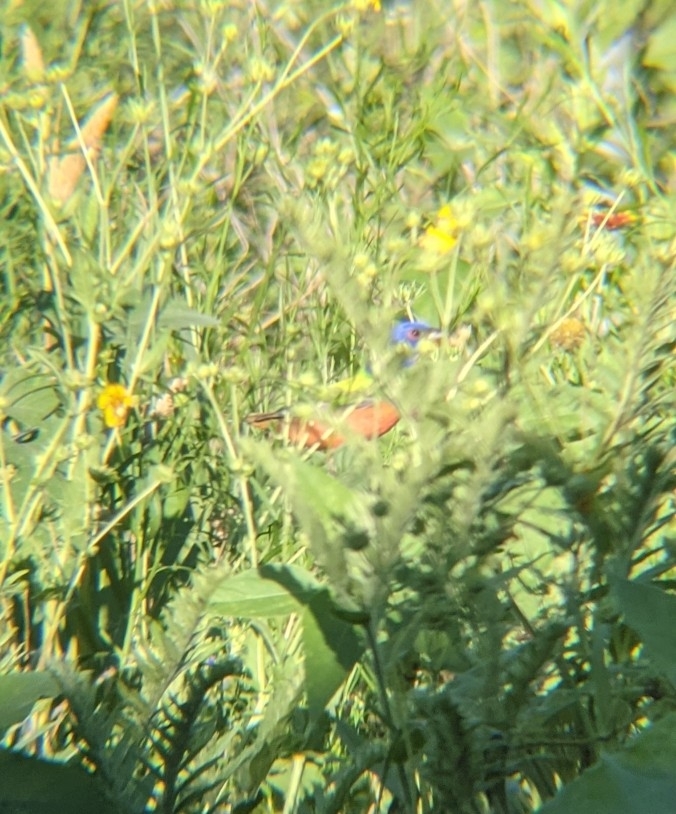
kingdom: Animalia
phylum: Chordata
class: Aves
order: Passeriformes
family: Cardinalidae
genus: Passerina
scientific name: Passerina ciris
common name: Painted bunting
